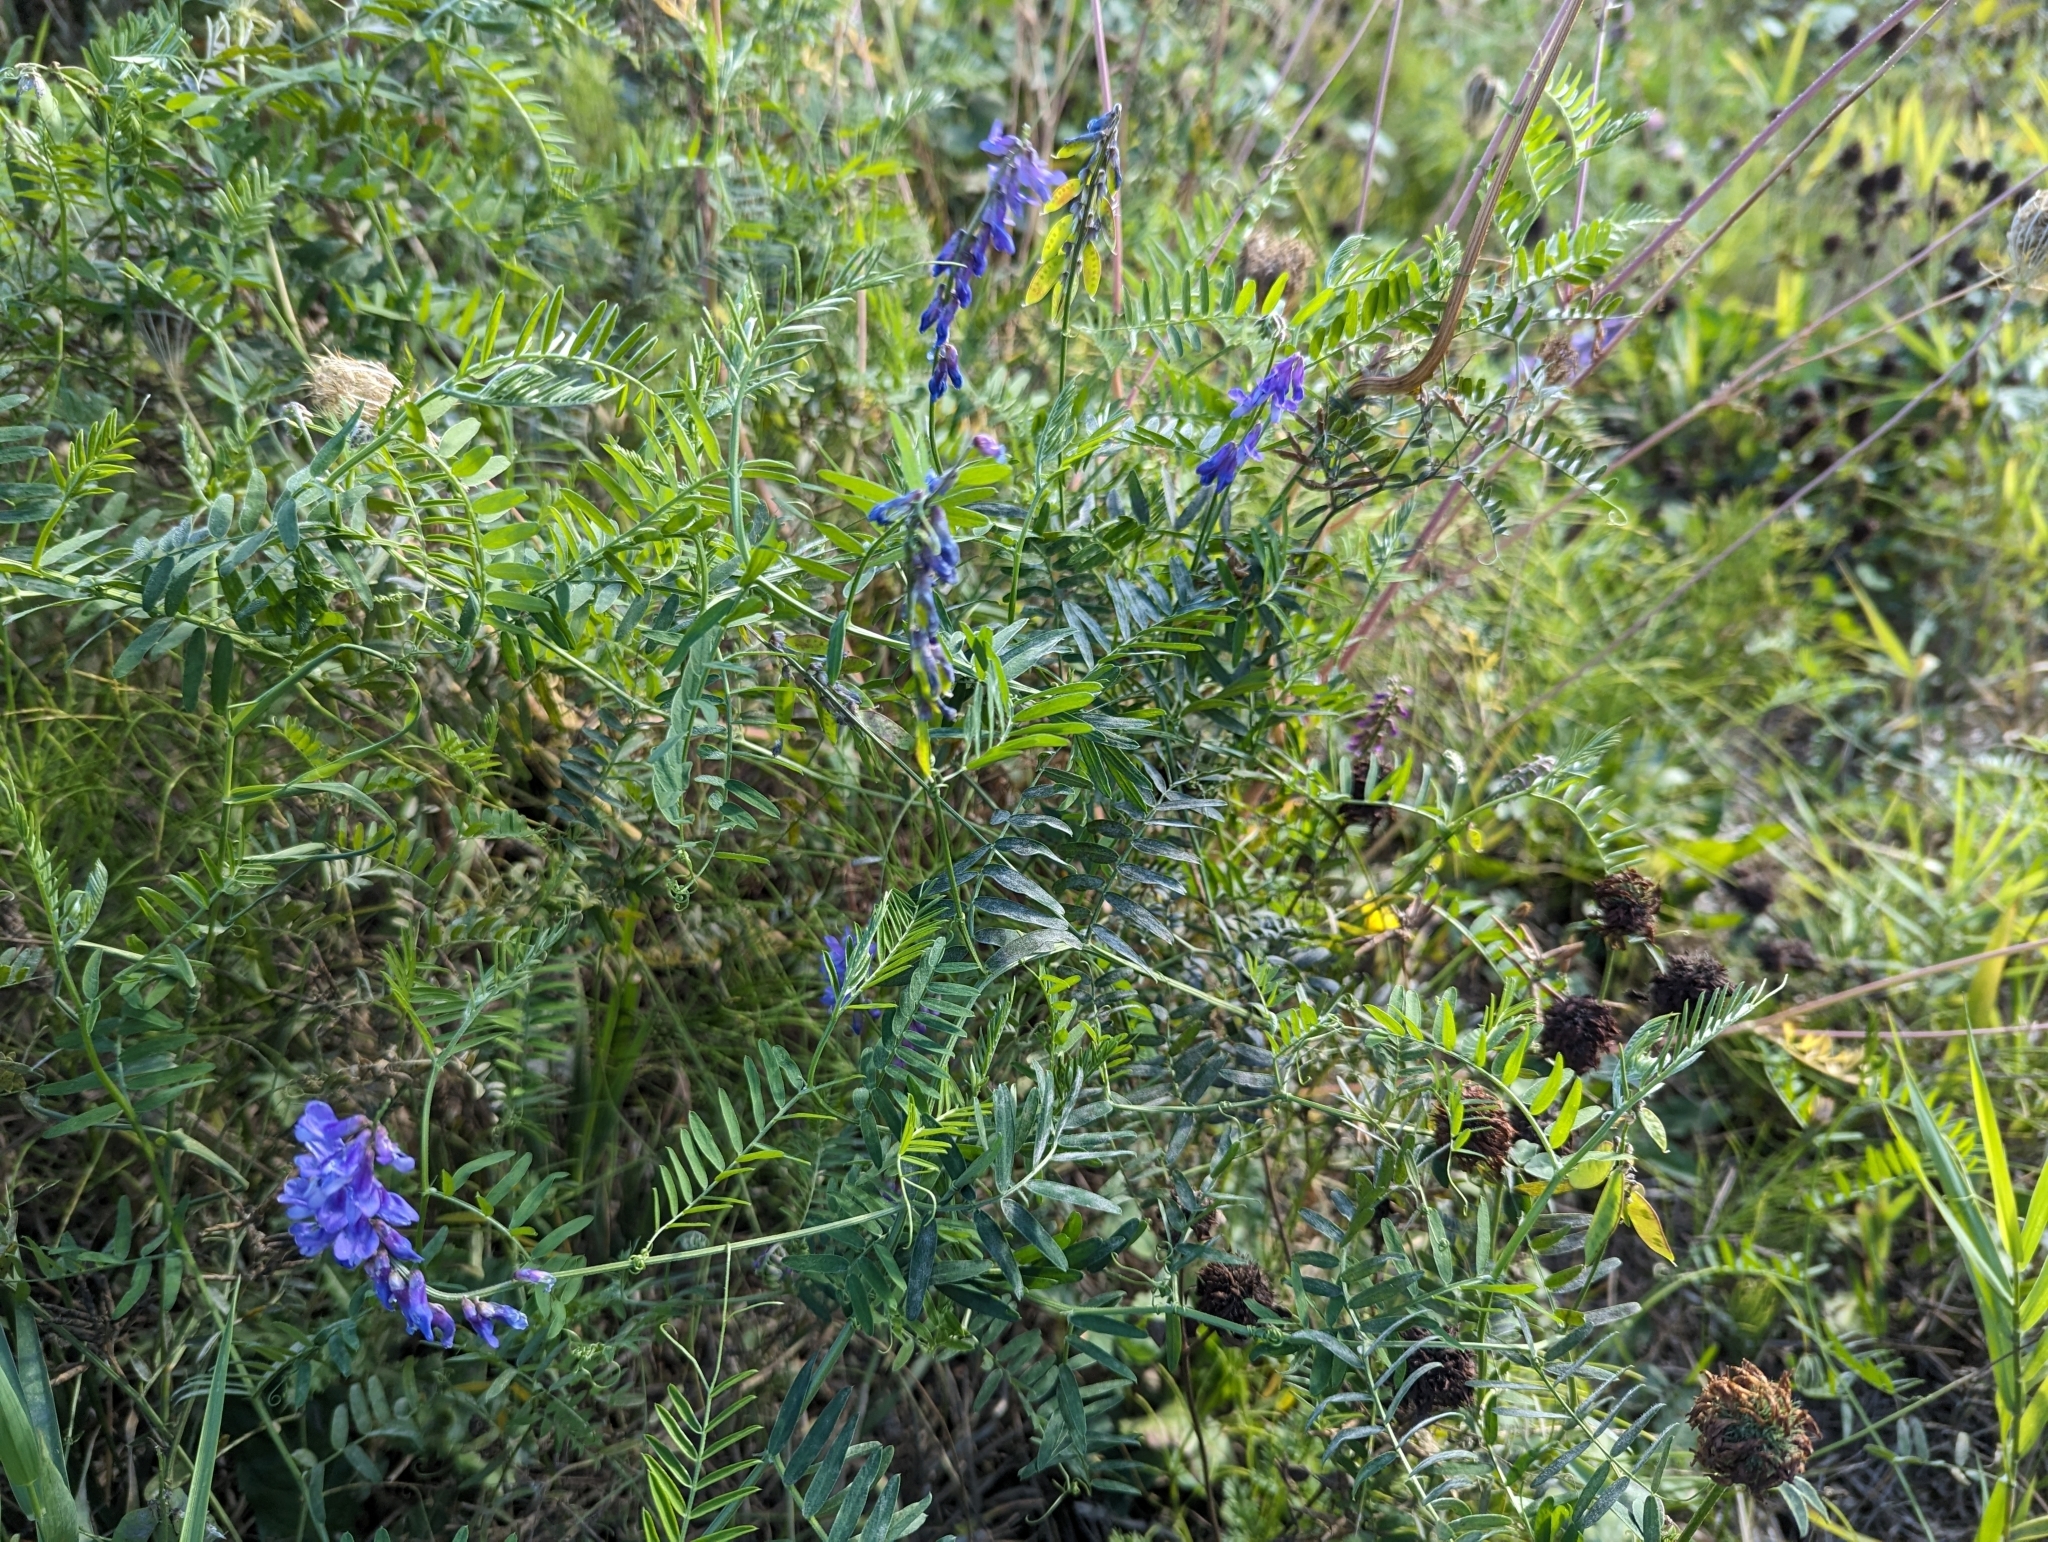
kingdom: Plantae
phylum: Tracheophyta
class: Magnoliopsida
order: Fabales
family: Fabaceae
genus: Vicia
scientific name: Vicia cracca
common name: Bird vetch
